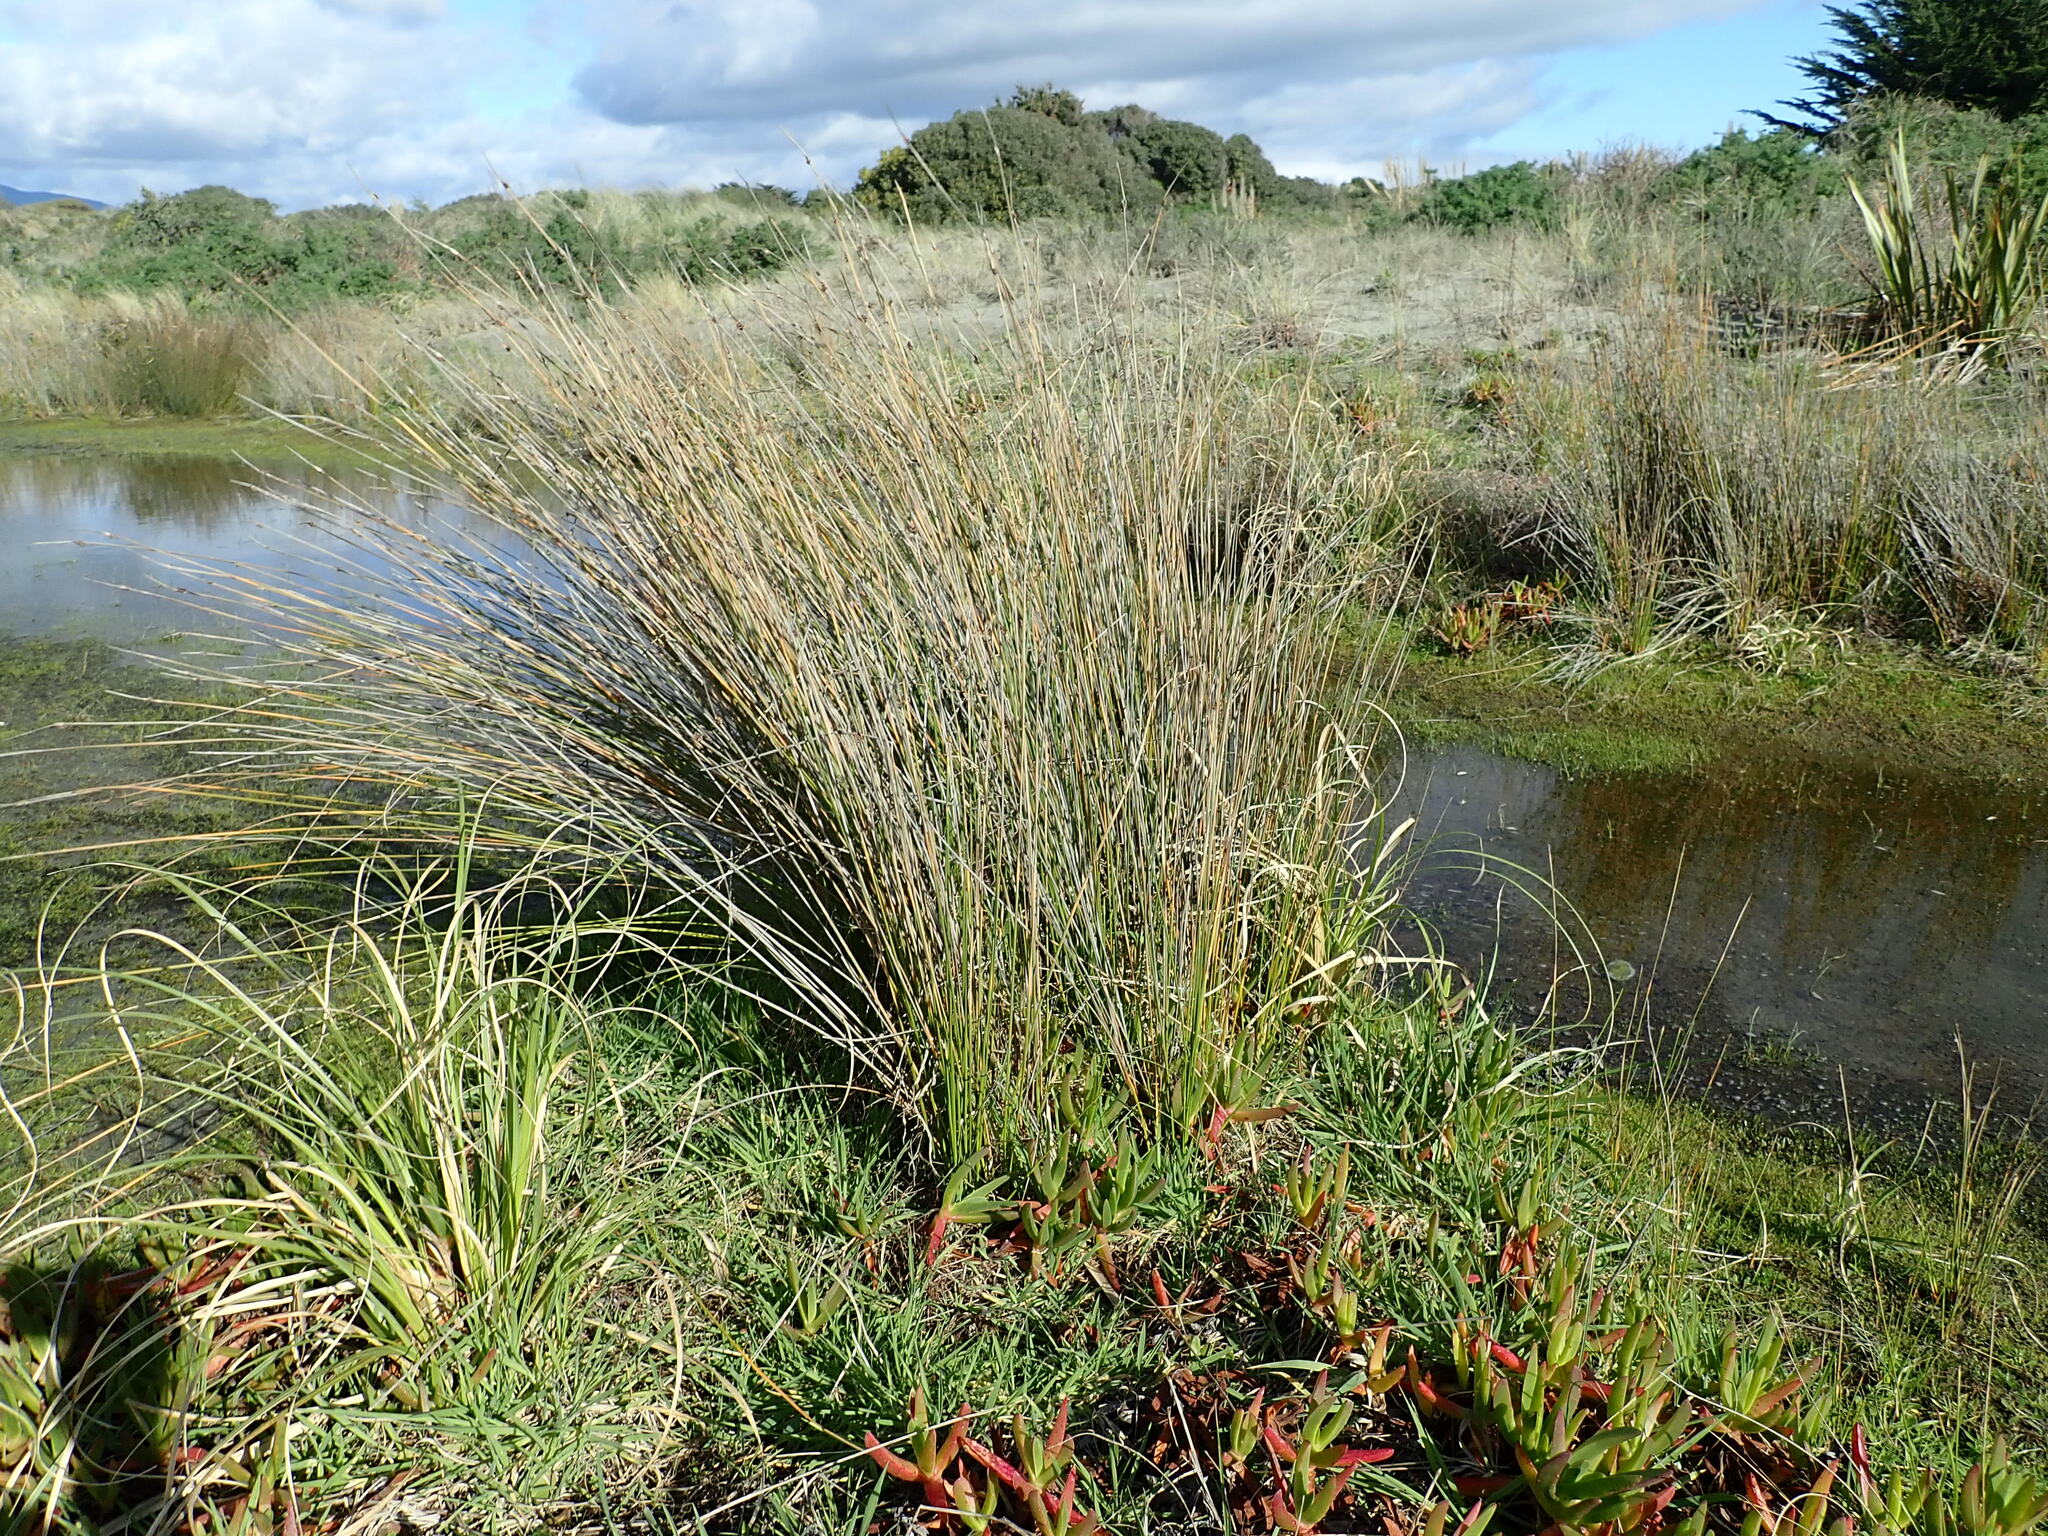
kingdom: Plantae
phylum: Tracheophyta
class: Liliopsida
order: Poales
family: Cyperaceae
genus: Ficinia
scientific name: Ficinia nodosa
